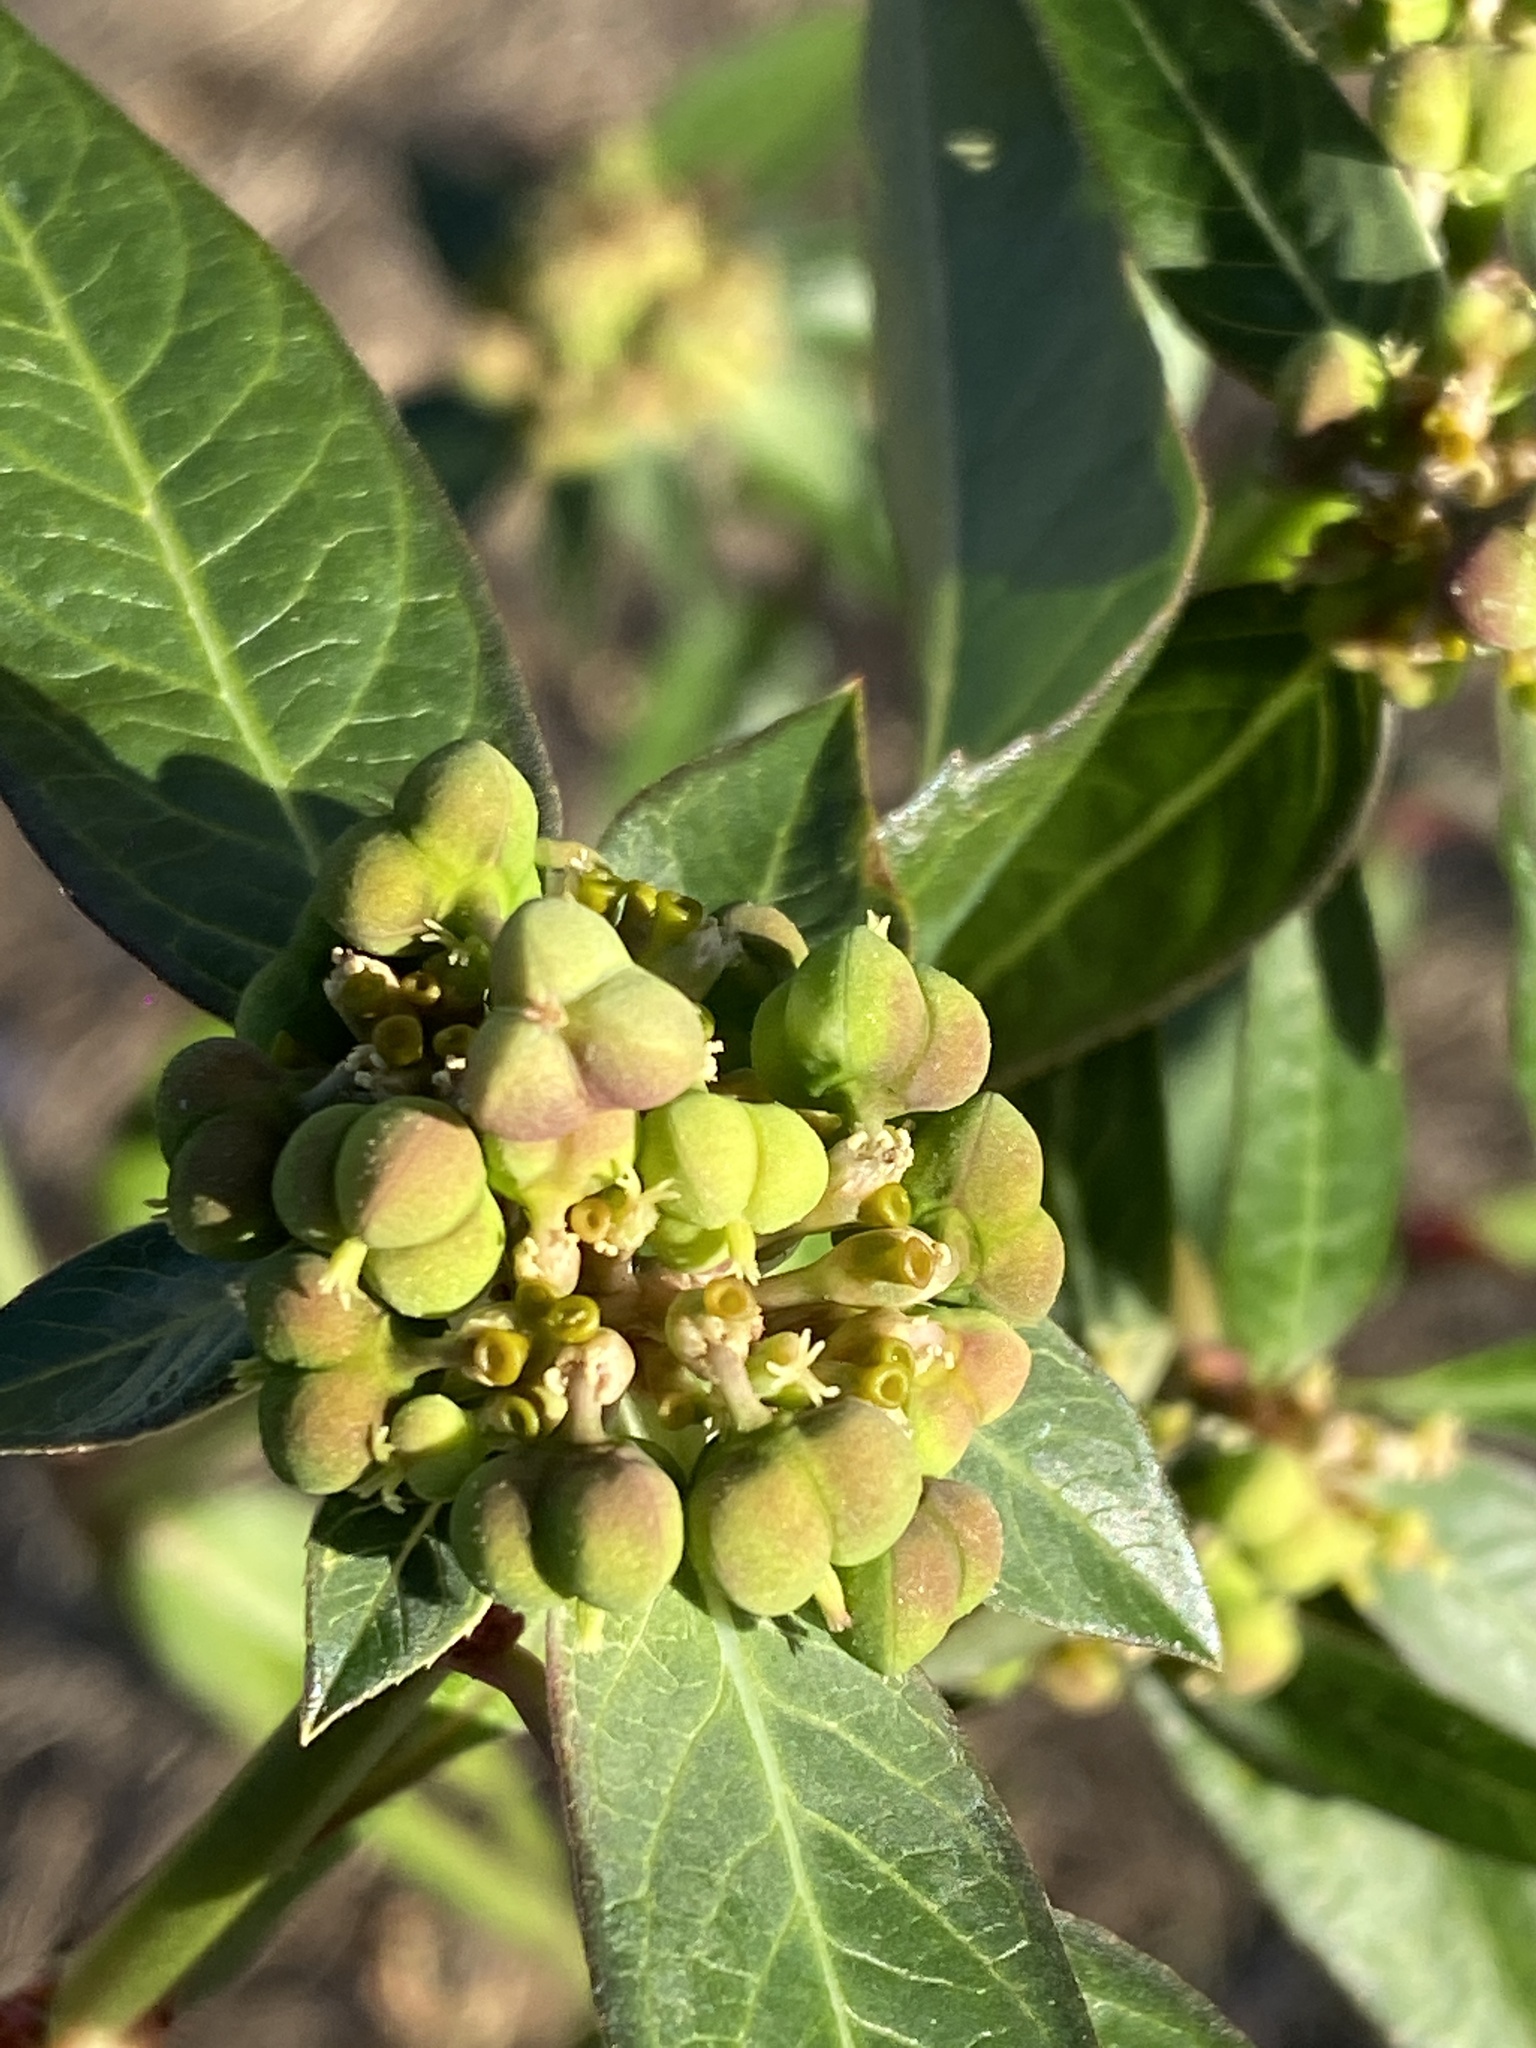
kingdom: Plantae
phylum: Tracheophyta
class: Magnoliopsida
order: Malpighiales
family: Euphorbiaceae
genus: Euphorbia
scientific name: Euphorbia heterophylla
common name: Mexican fireplant
